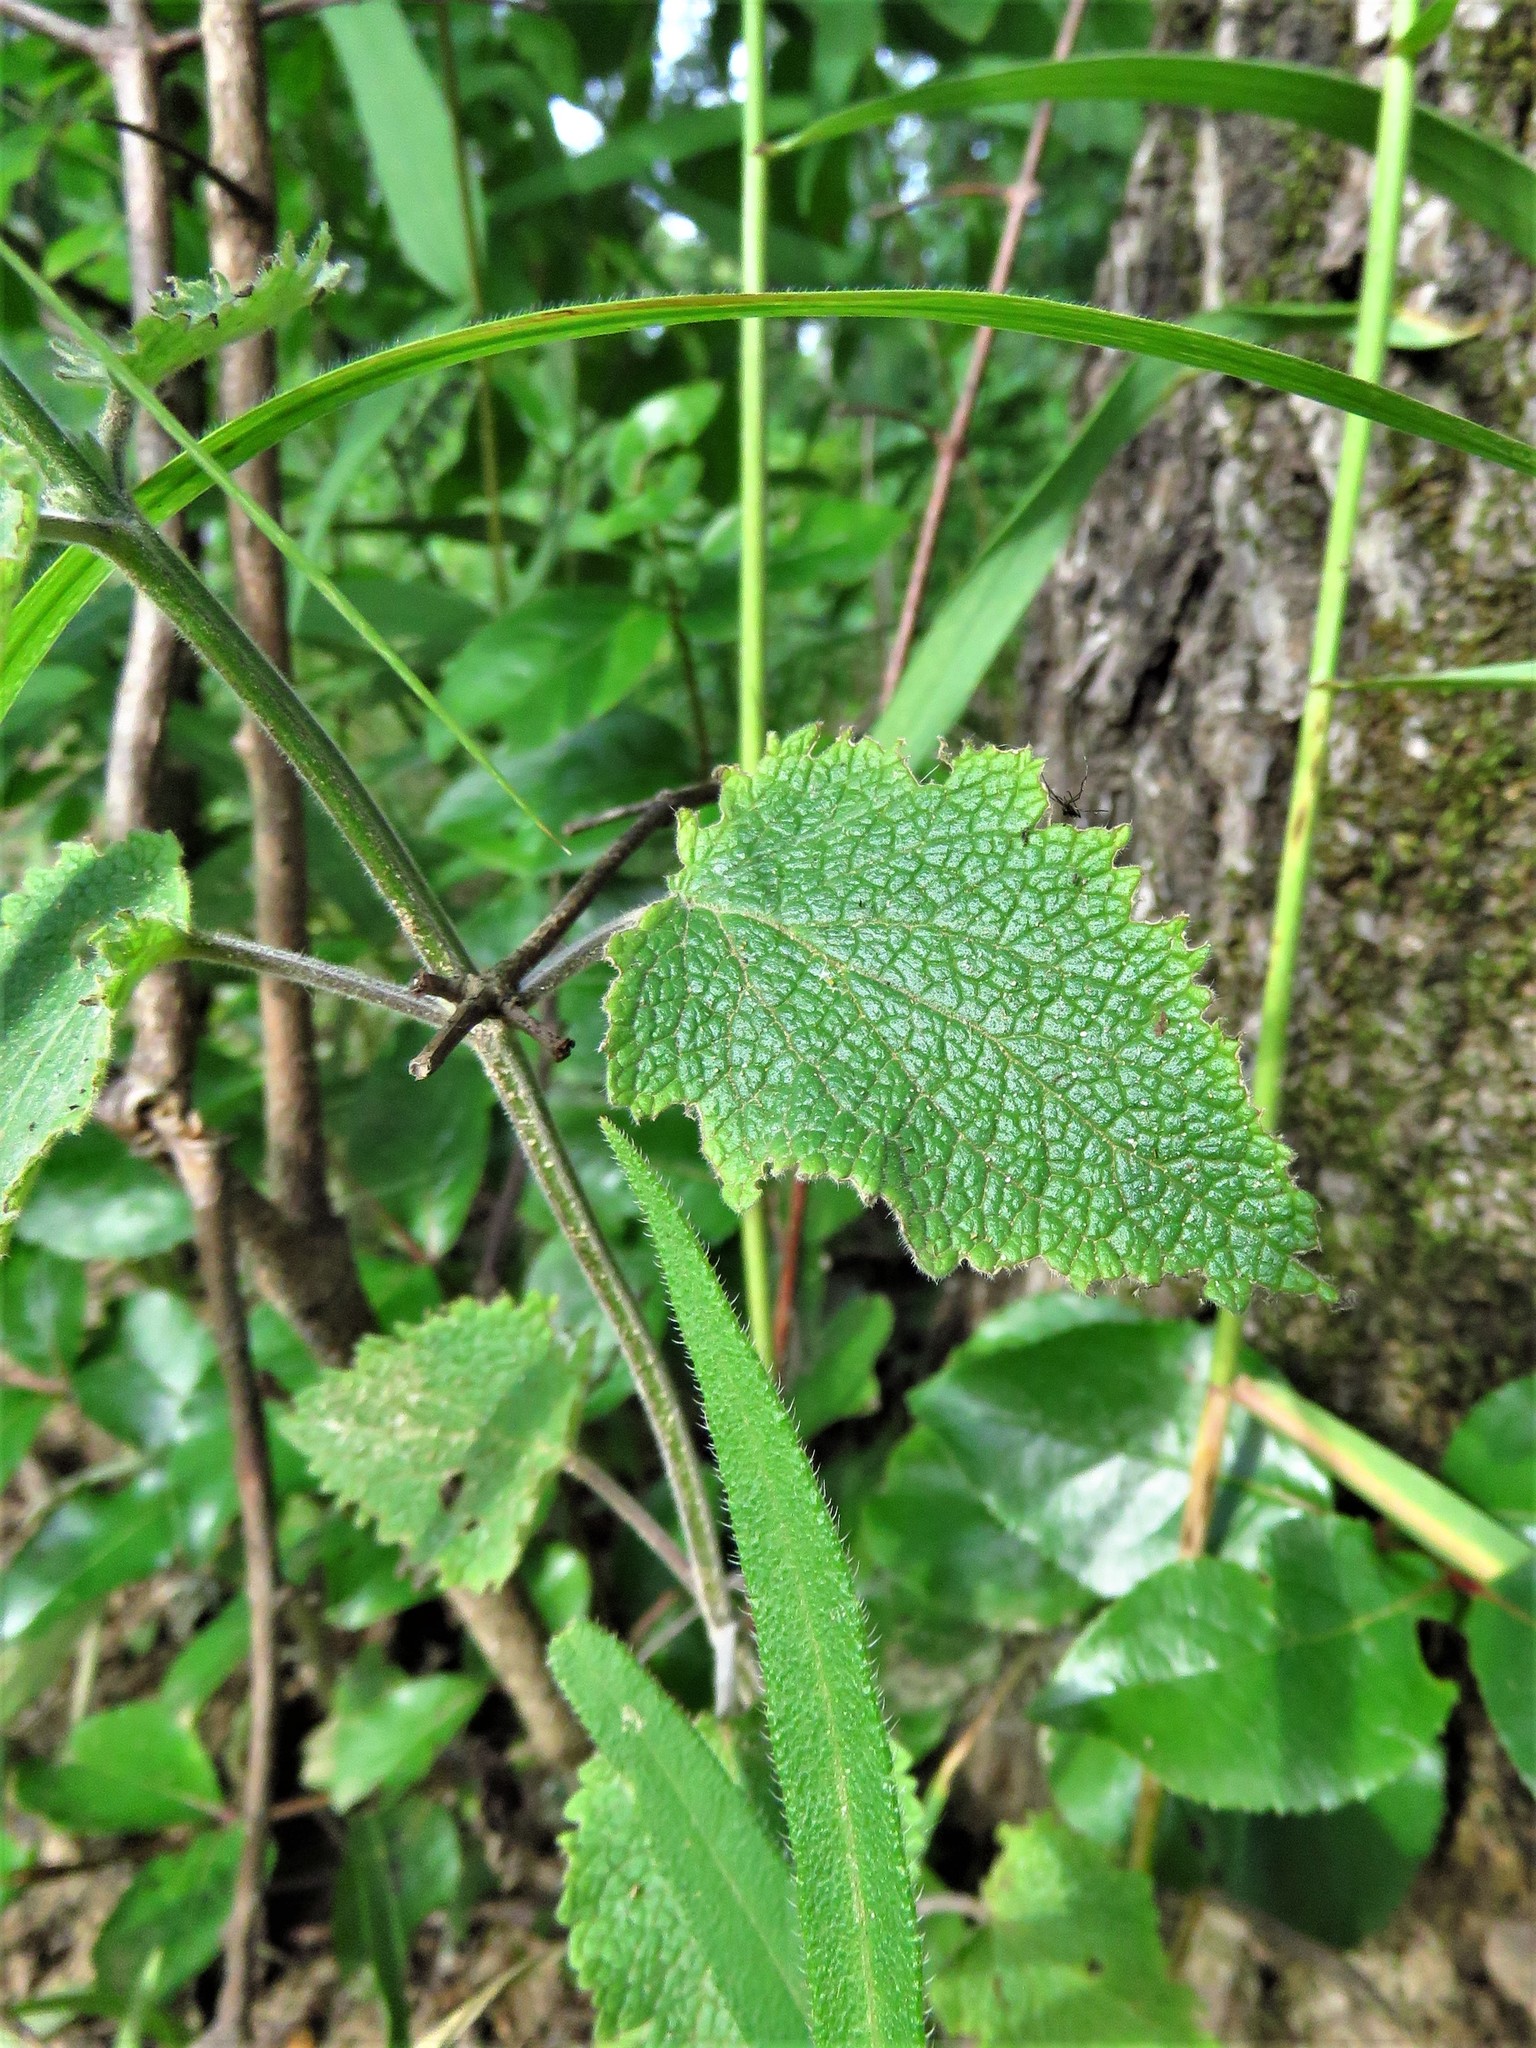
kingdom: Plantae
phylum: Tracheophyta
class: Magnoliopsida
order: Lamiales
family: Lamiaceae
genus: Scutellaria
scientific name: Scutellaria ovata
